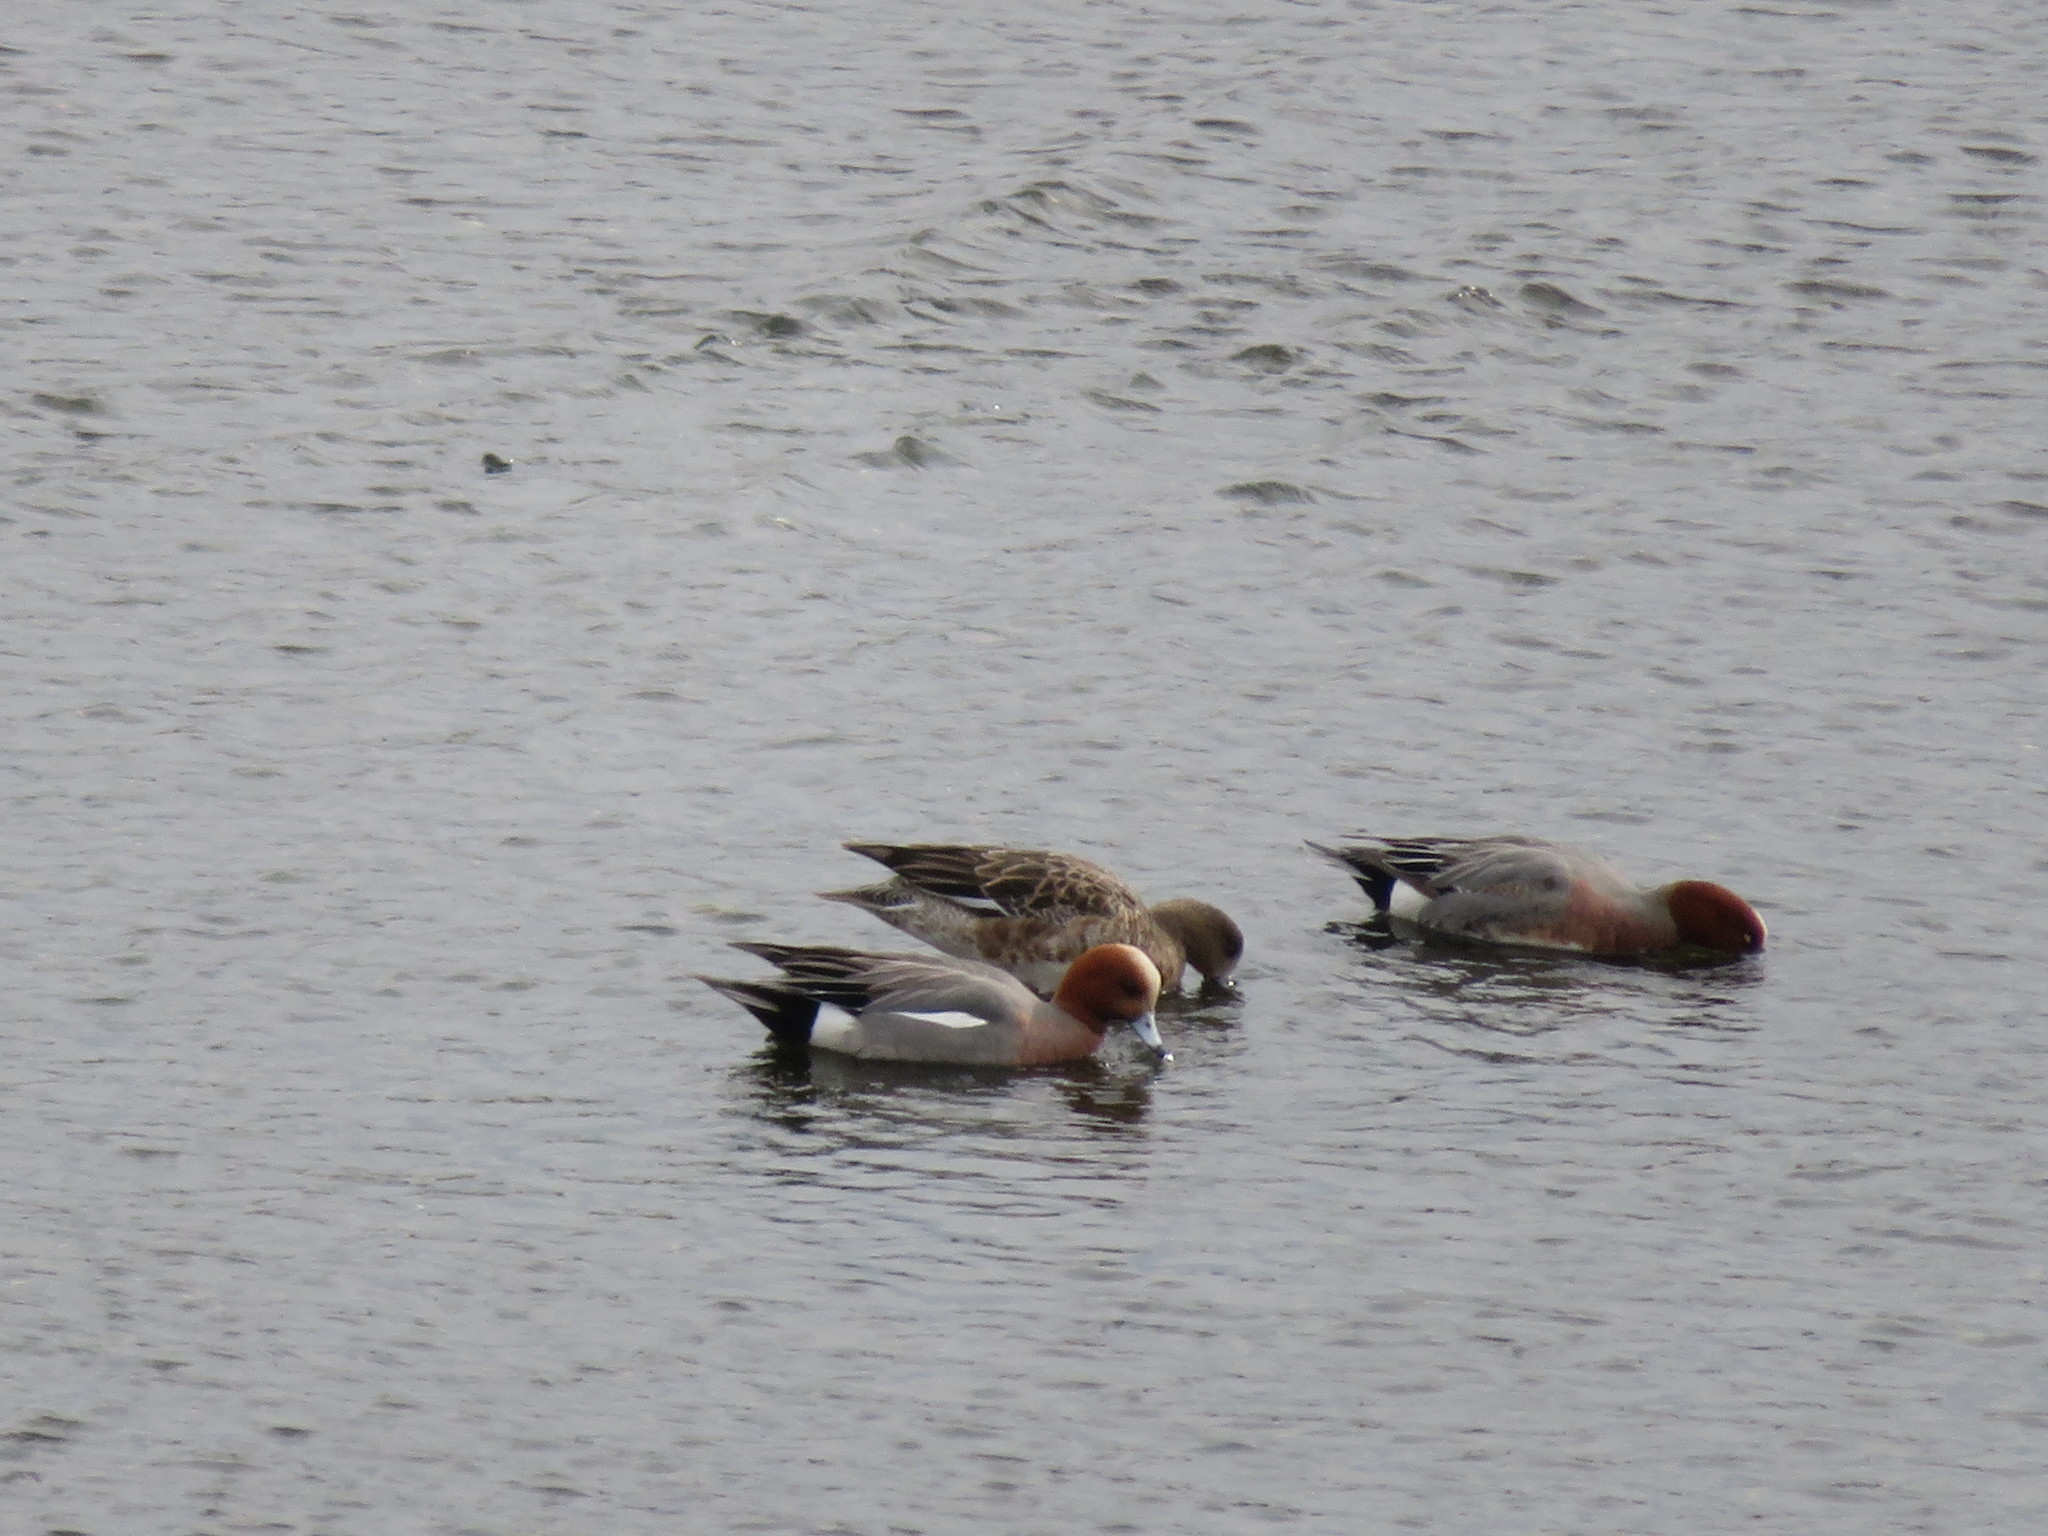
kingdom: Animalia
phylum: Chordata
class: Aves
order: Anseriformes
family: Anatidae
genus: Mareca
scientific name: Mareca penelope
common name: Eurasian wigeon
